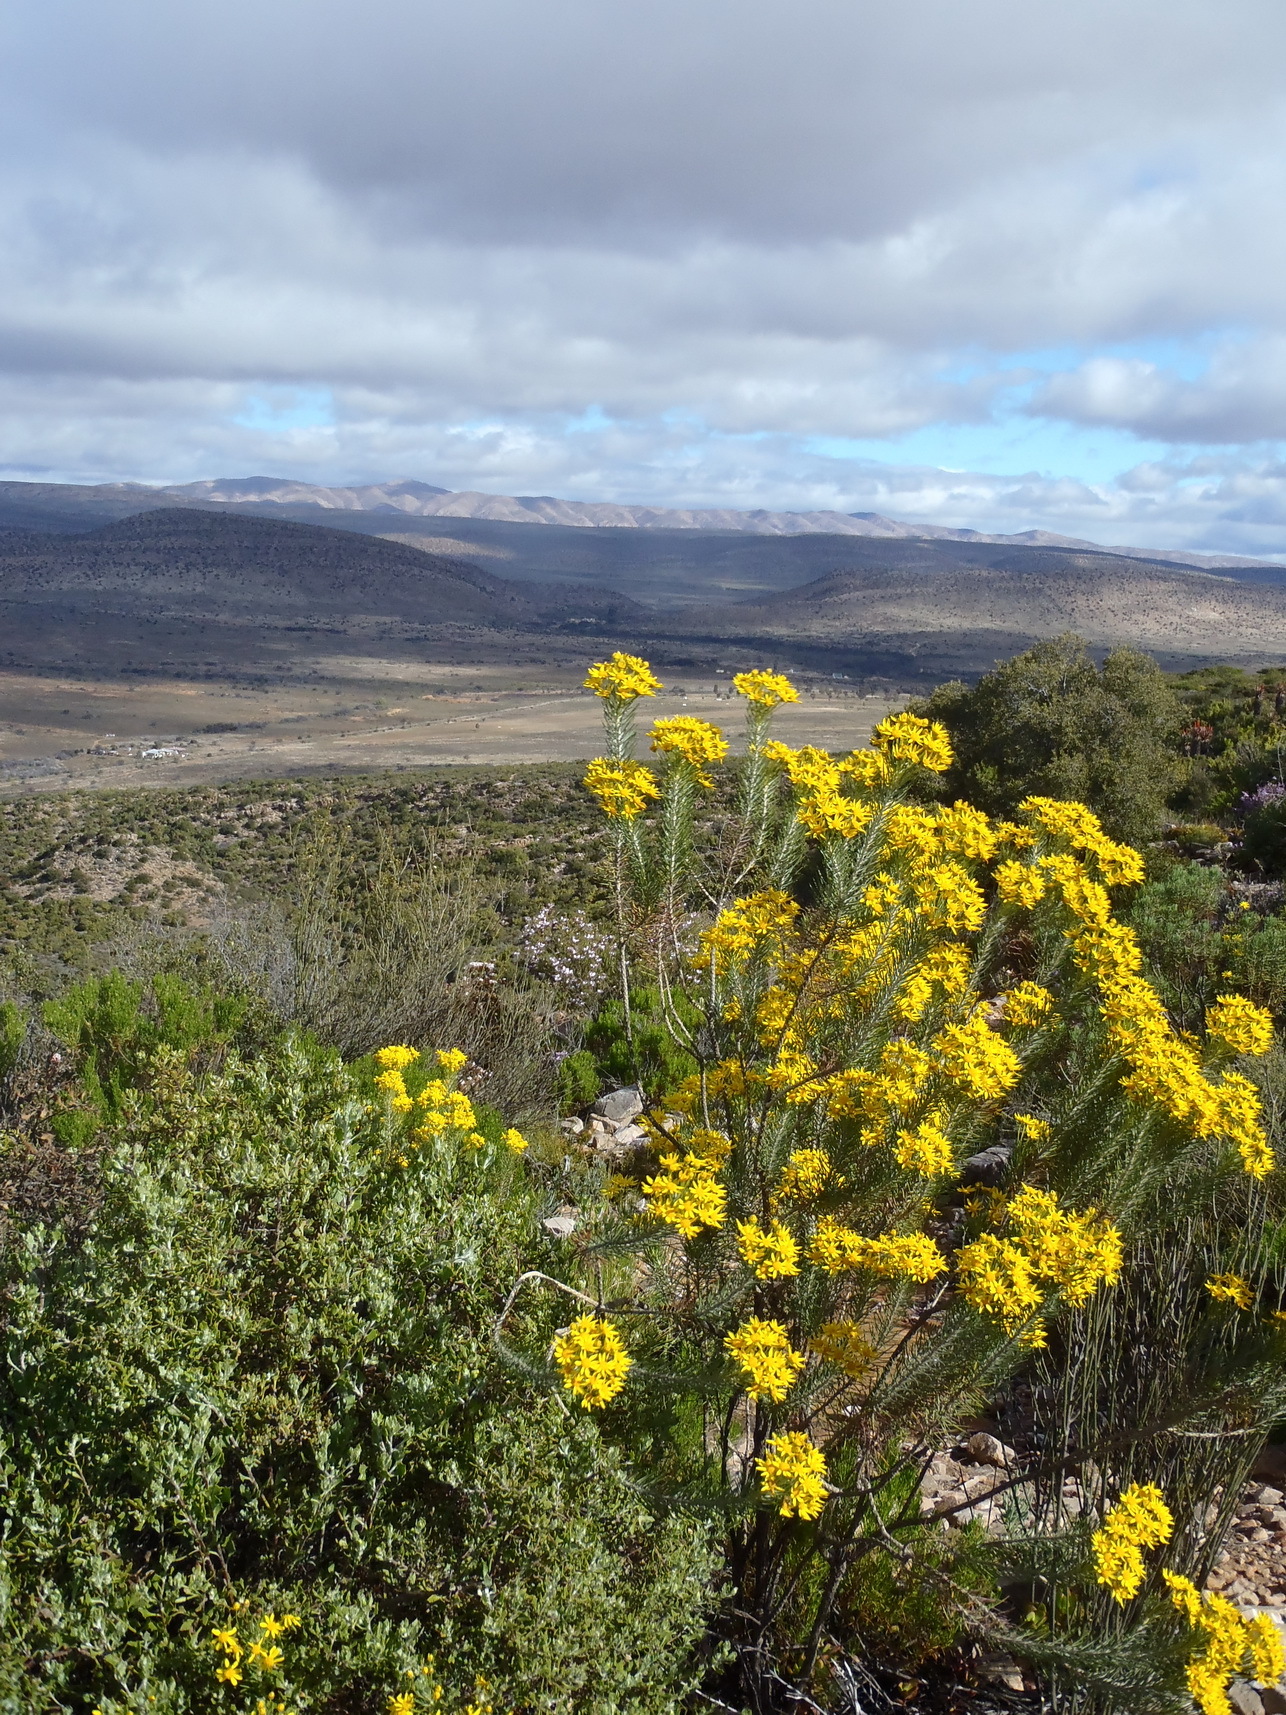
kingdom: Plantae
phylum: Tracheophyta
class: Magnoliopsida
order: Asterales
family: Asteraceae
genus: Euryops
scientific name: Euryops rehmannii
